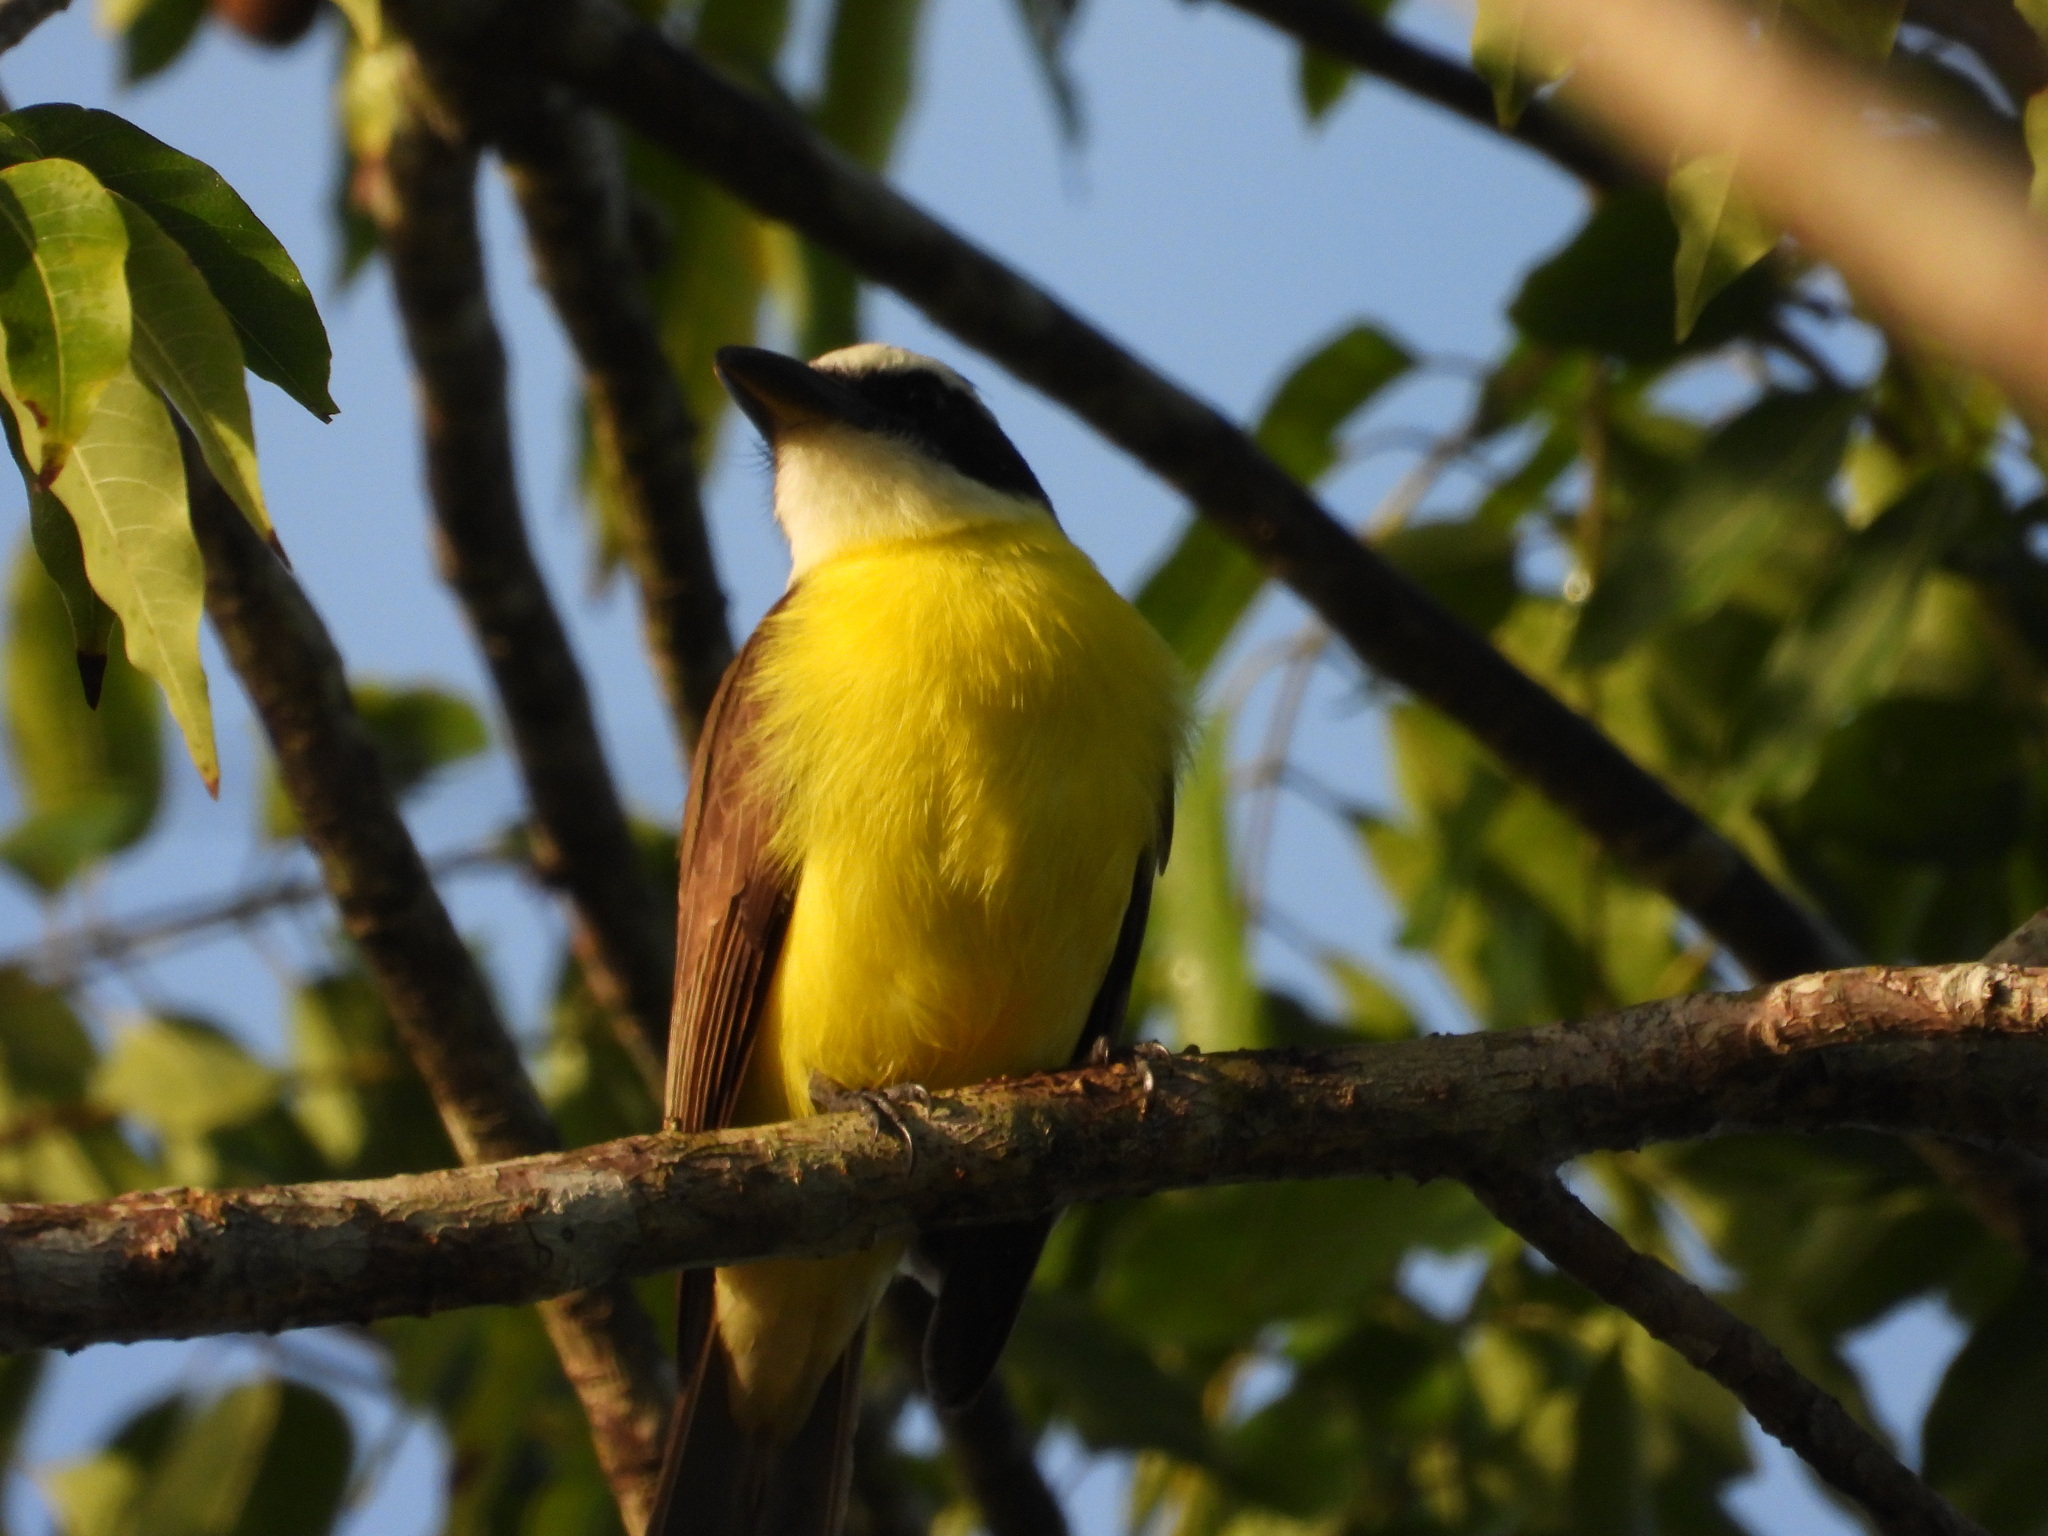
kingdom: Animalia
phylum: Chordata
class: Aves
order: Passeriformes
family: Tyrannidae
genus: Megarynchus
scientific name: Megarynchus pitangua
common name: Boat-billed flycatcher
